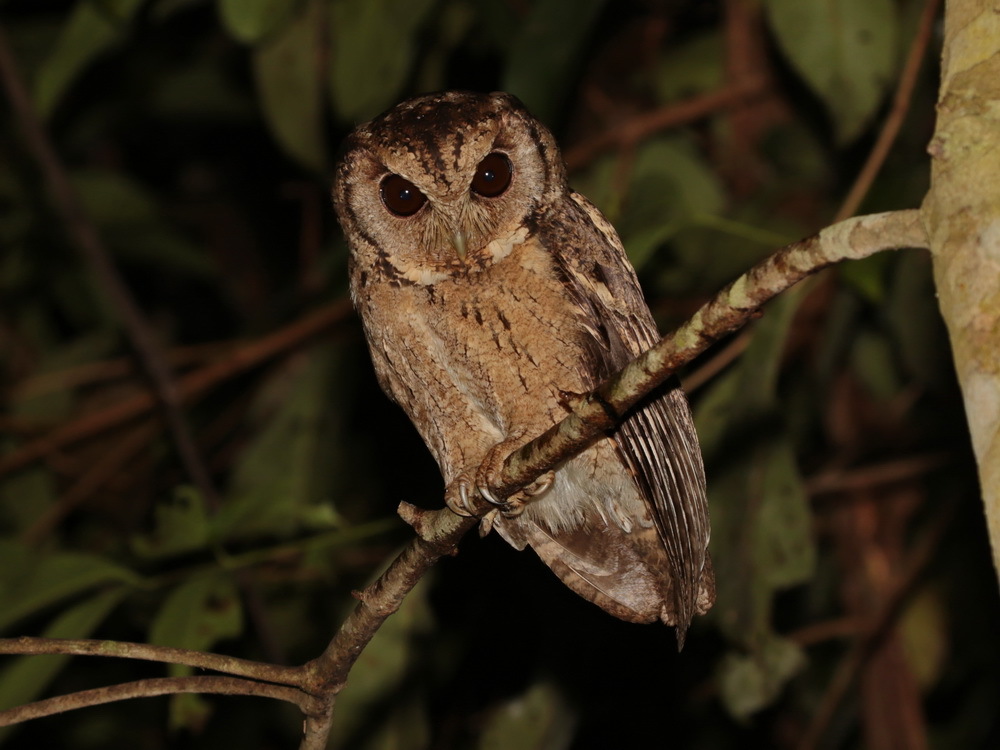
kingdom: Animalia
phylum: Chordata
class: Aves
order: Strigiformes
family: Strigidae
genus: Otus
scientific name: Otus lettia
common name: Collared scops owl
